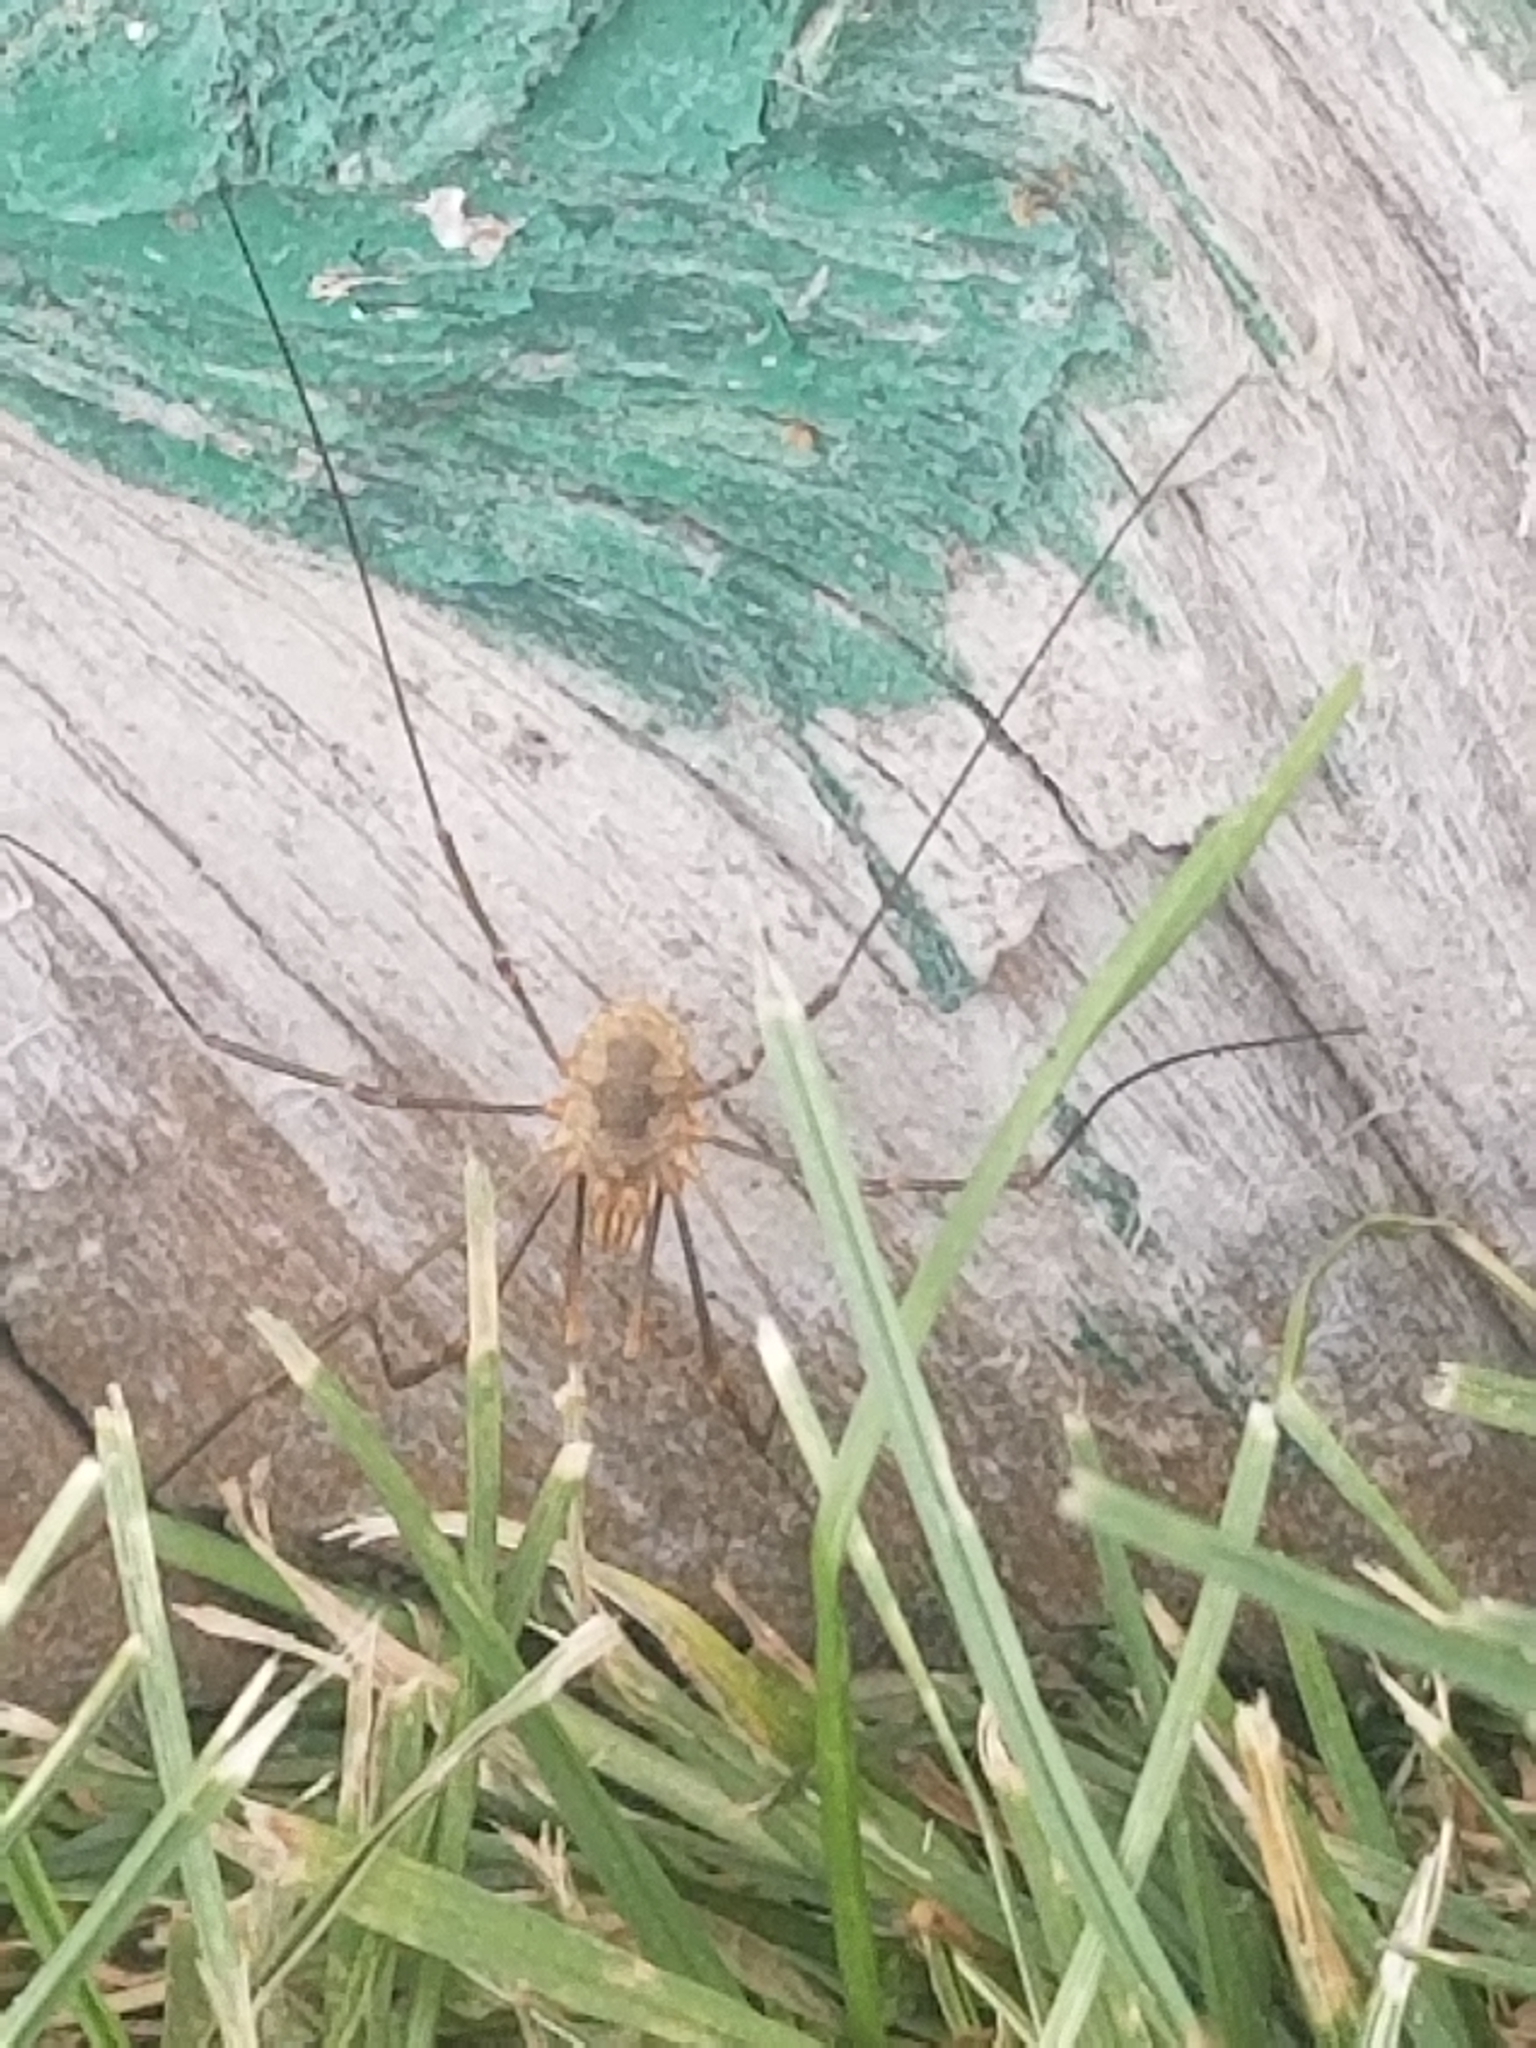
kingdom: Animalia
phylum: Arthropoda
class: Arachnida
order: Opiliones
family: Phalangiidae
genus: Phalangium
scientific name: Phalangium opilio
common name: Daddy longleg
